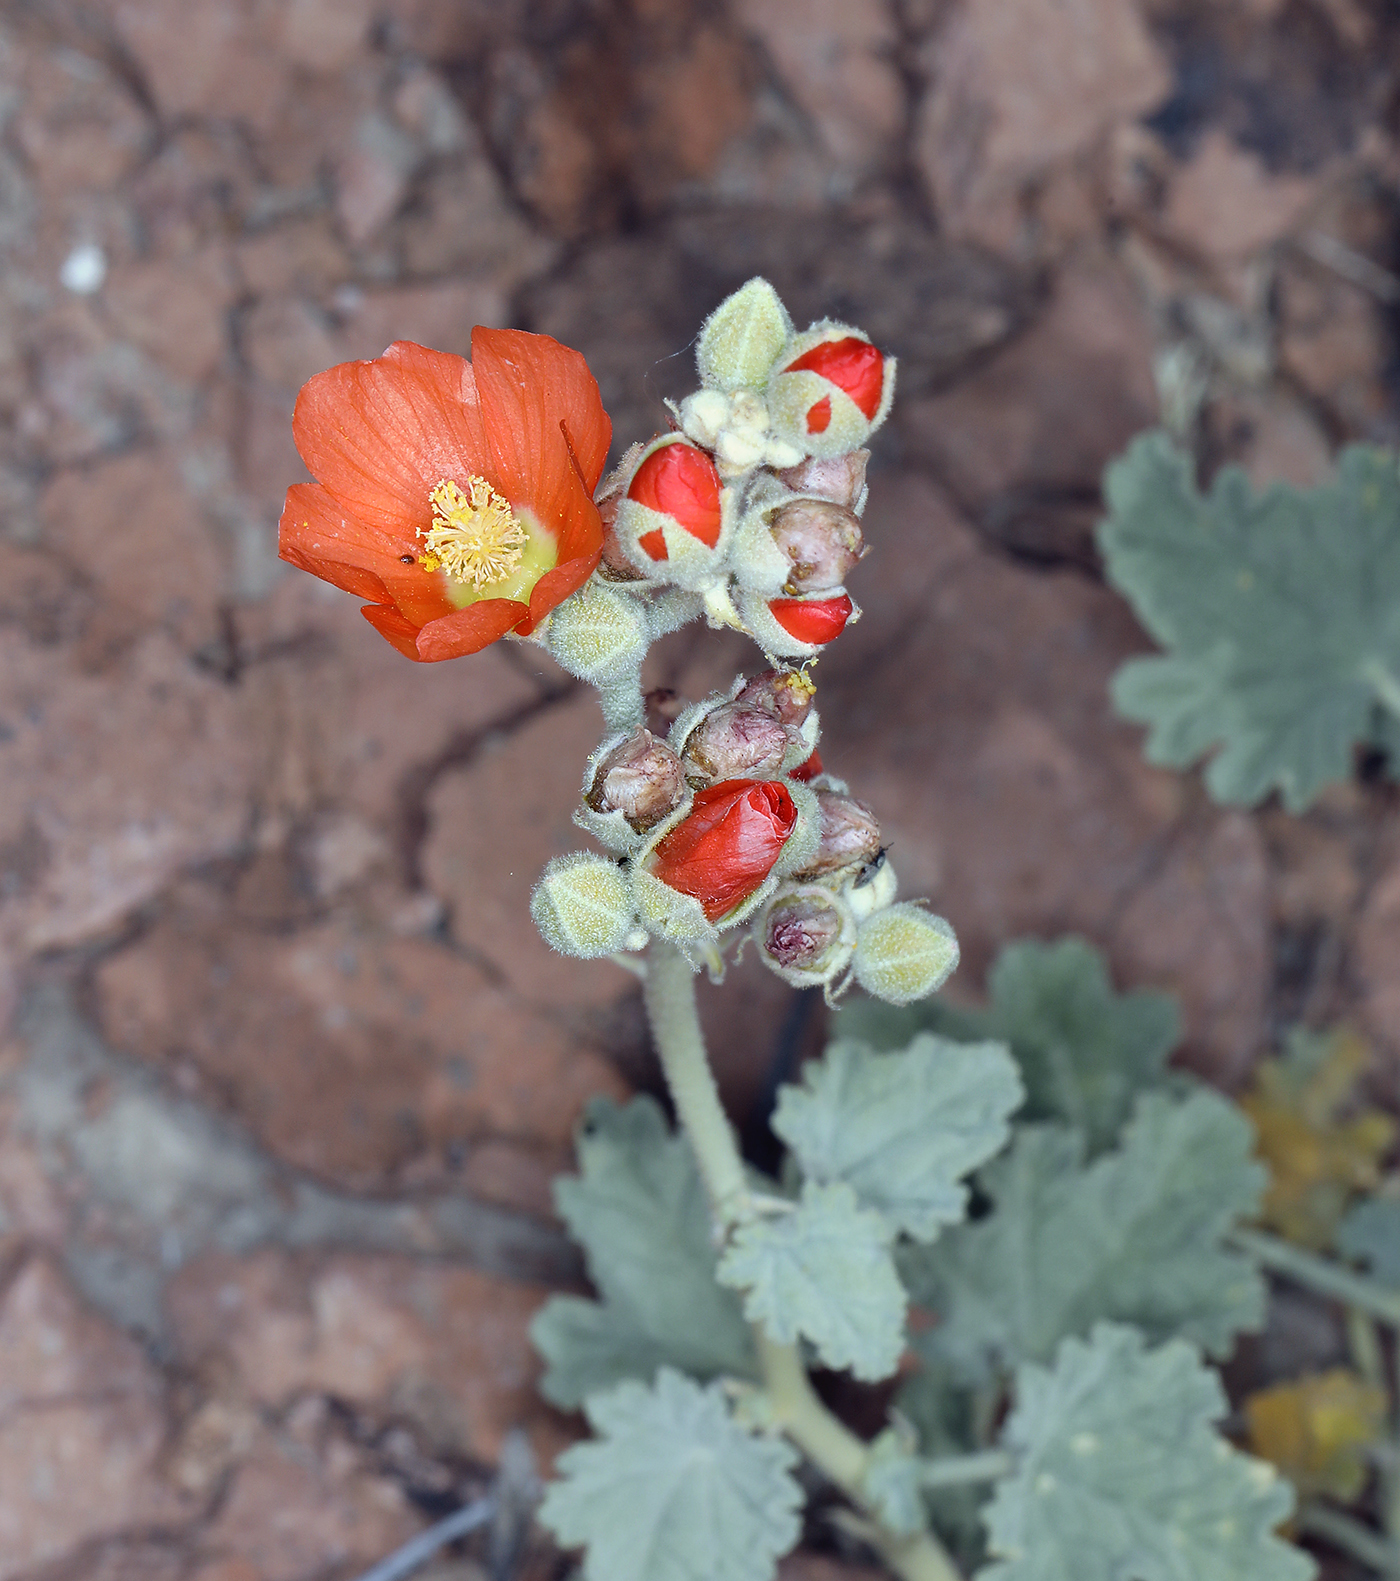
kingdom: Plantae
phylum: Tracheophyta
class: Magnoliopsida
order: Malvales
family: Malvaceae
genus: Sphaeralcea
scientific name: Sphaeralcea ambigua
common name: Apricot globe-mallow
